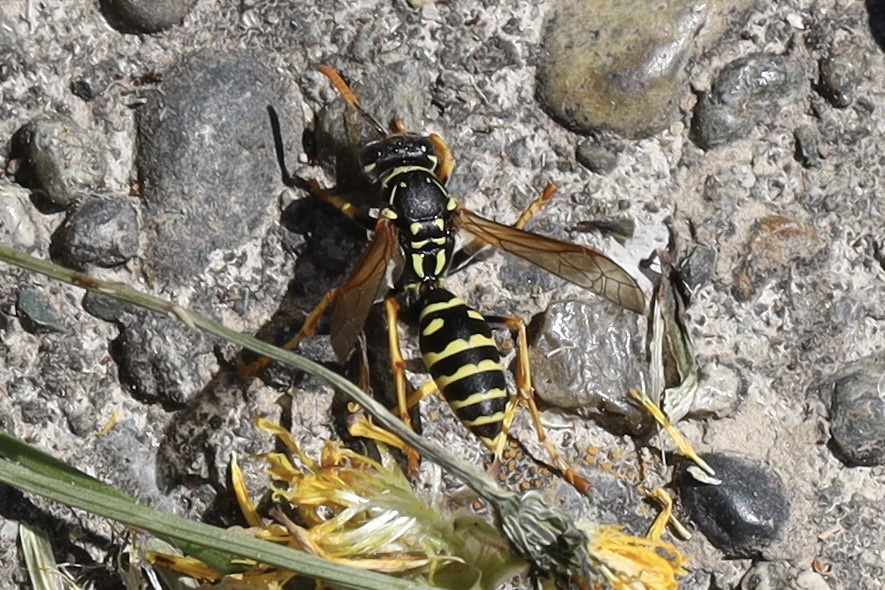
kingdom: Animalia
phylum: Arthropoda
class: Insecta
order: Hymenoptera
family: Eumenidae
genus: Polistes
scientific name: Polistes dominula
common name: Paper wasp
